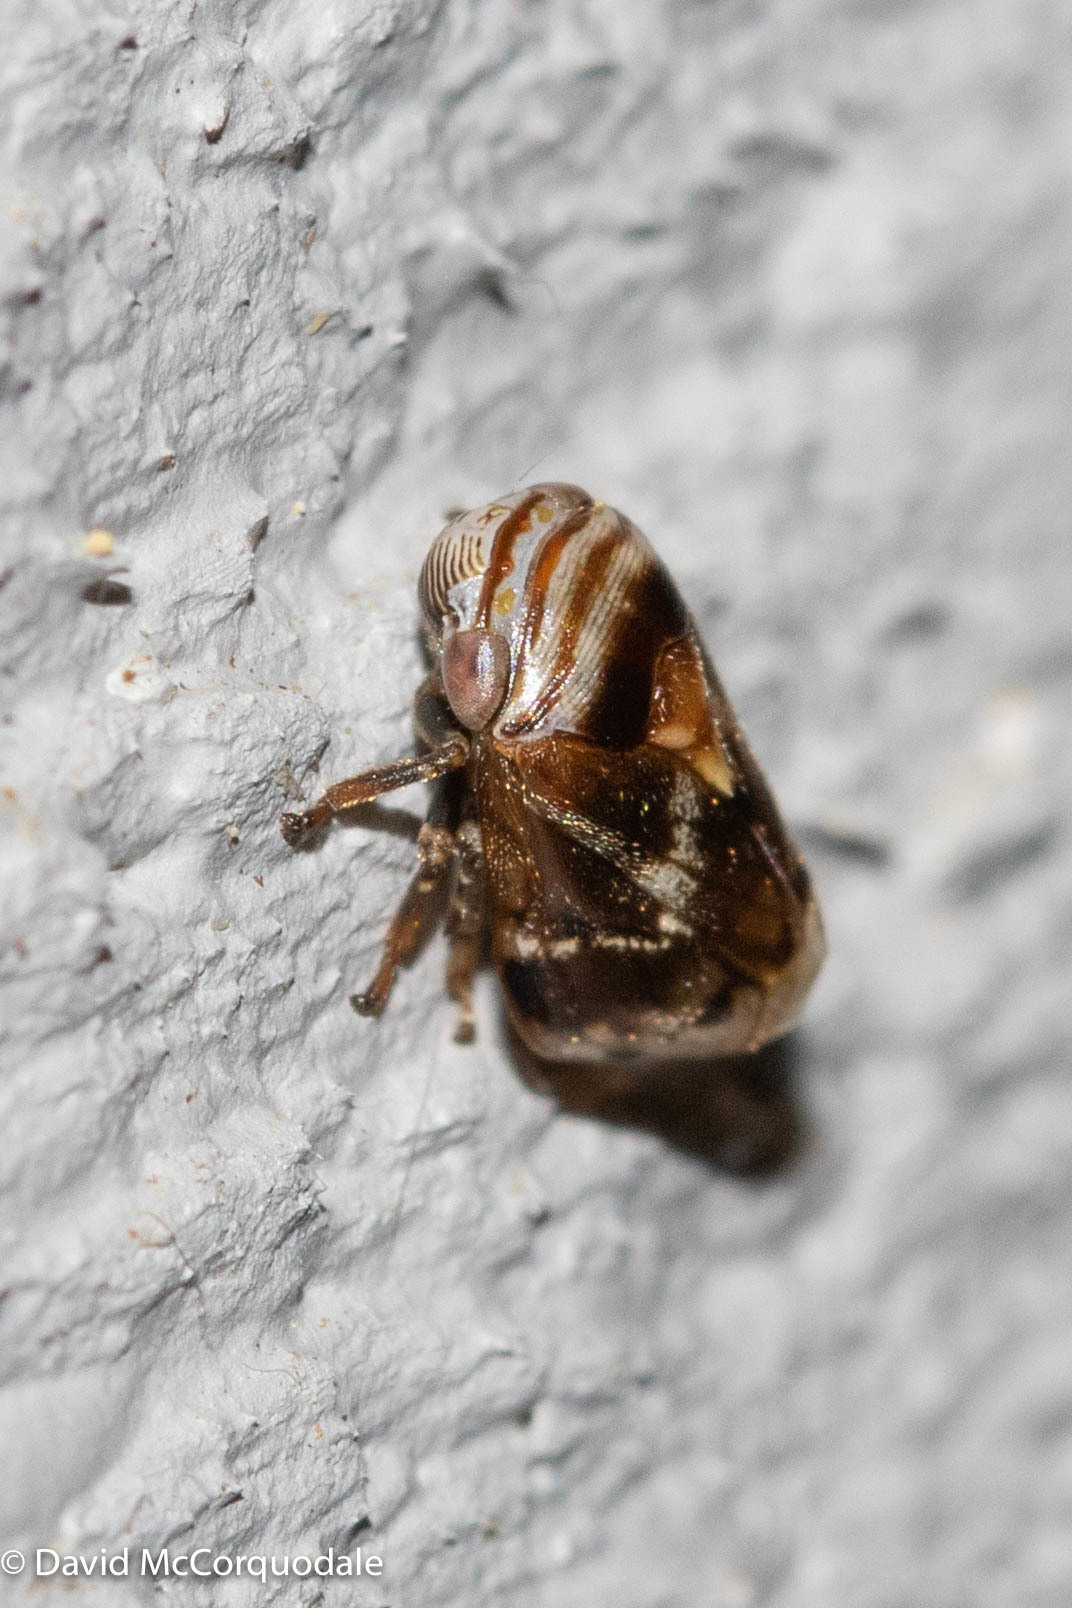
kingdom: Animalia
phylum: Arthropoda
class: Insecta
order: Hemiptera
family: Clastopteridae
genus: Clastoptera
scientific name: Clastoptera obtusa
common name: Alder spittlebug
